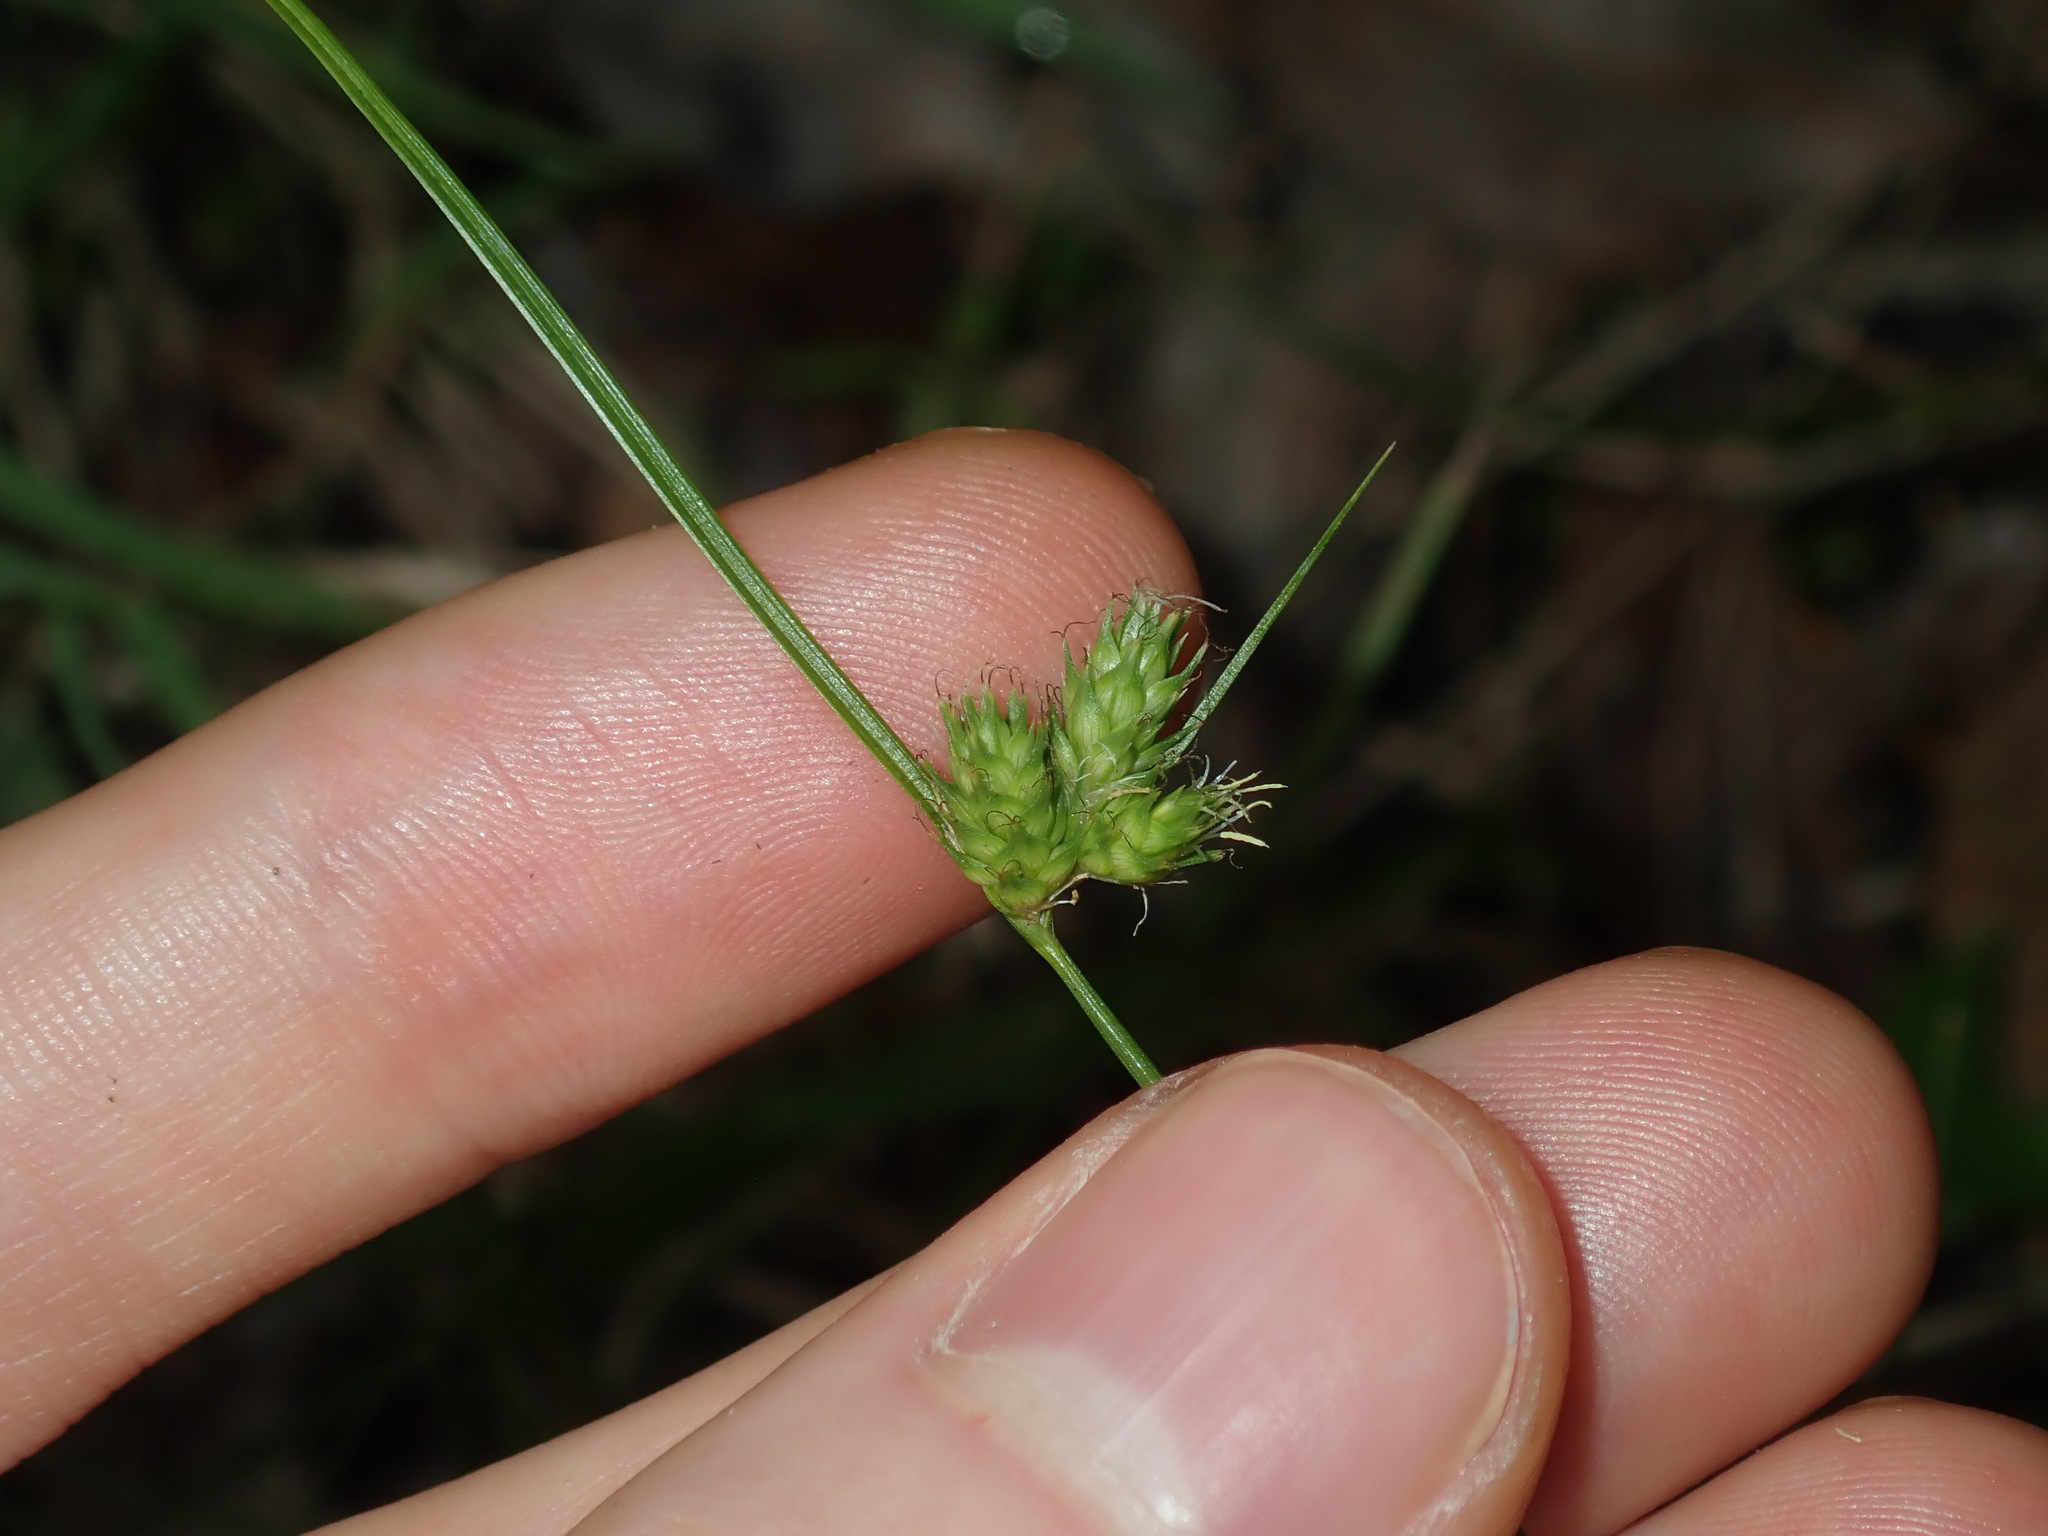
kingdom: Plantae
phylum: Tracheophyta
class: Liliopsida
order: Poales
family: Cyperaceae
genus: Carex
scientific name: Carex inversa
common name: Knob sedge
